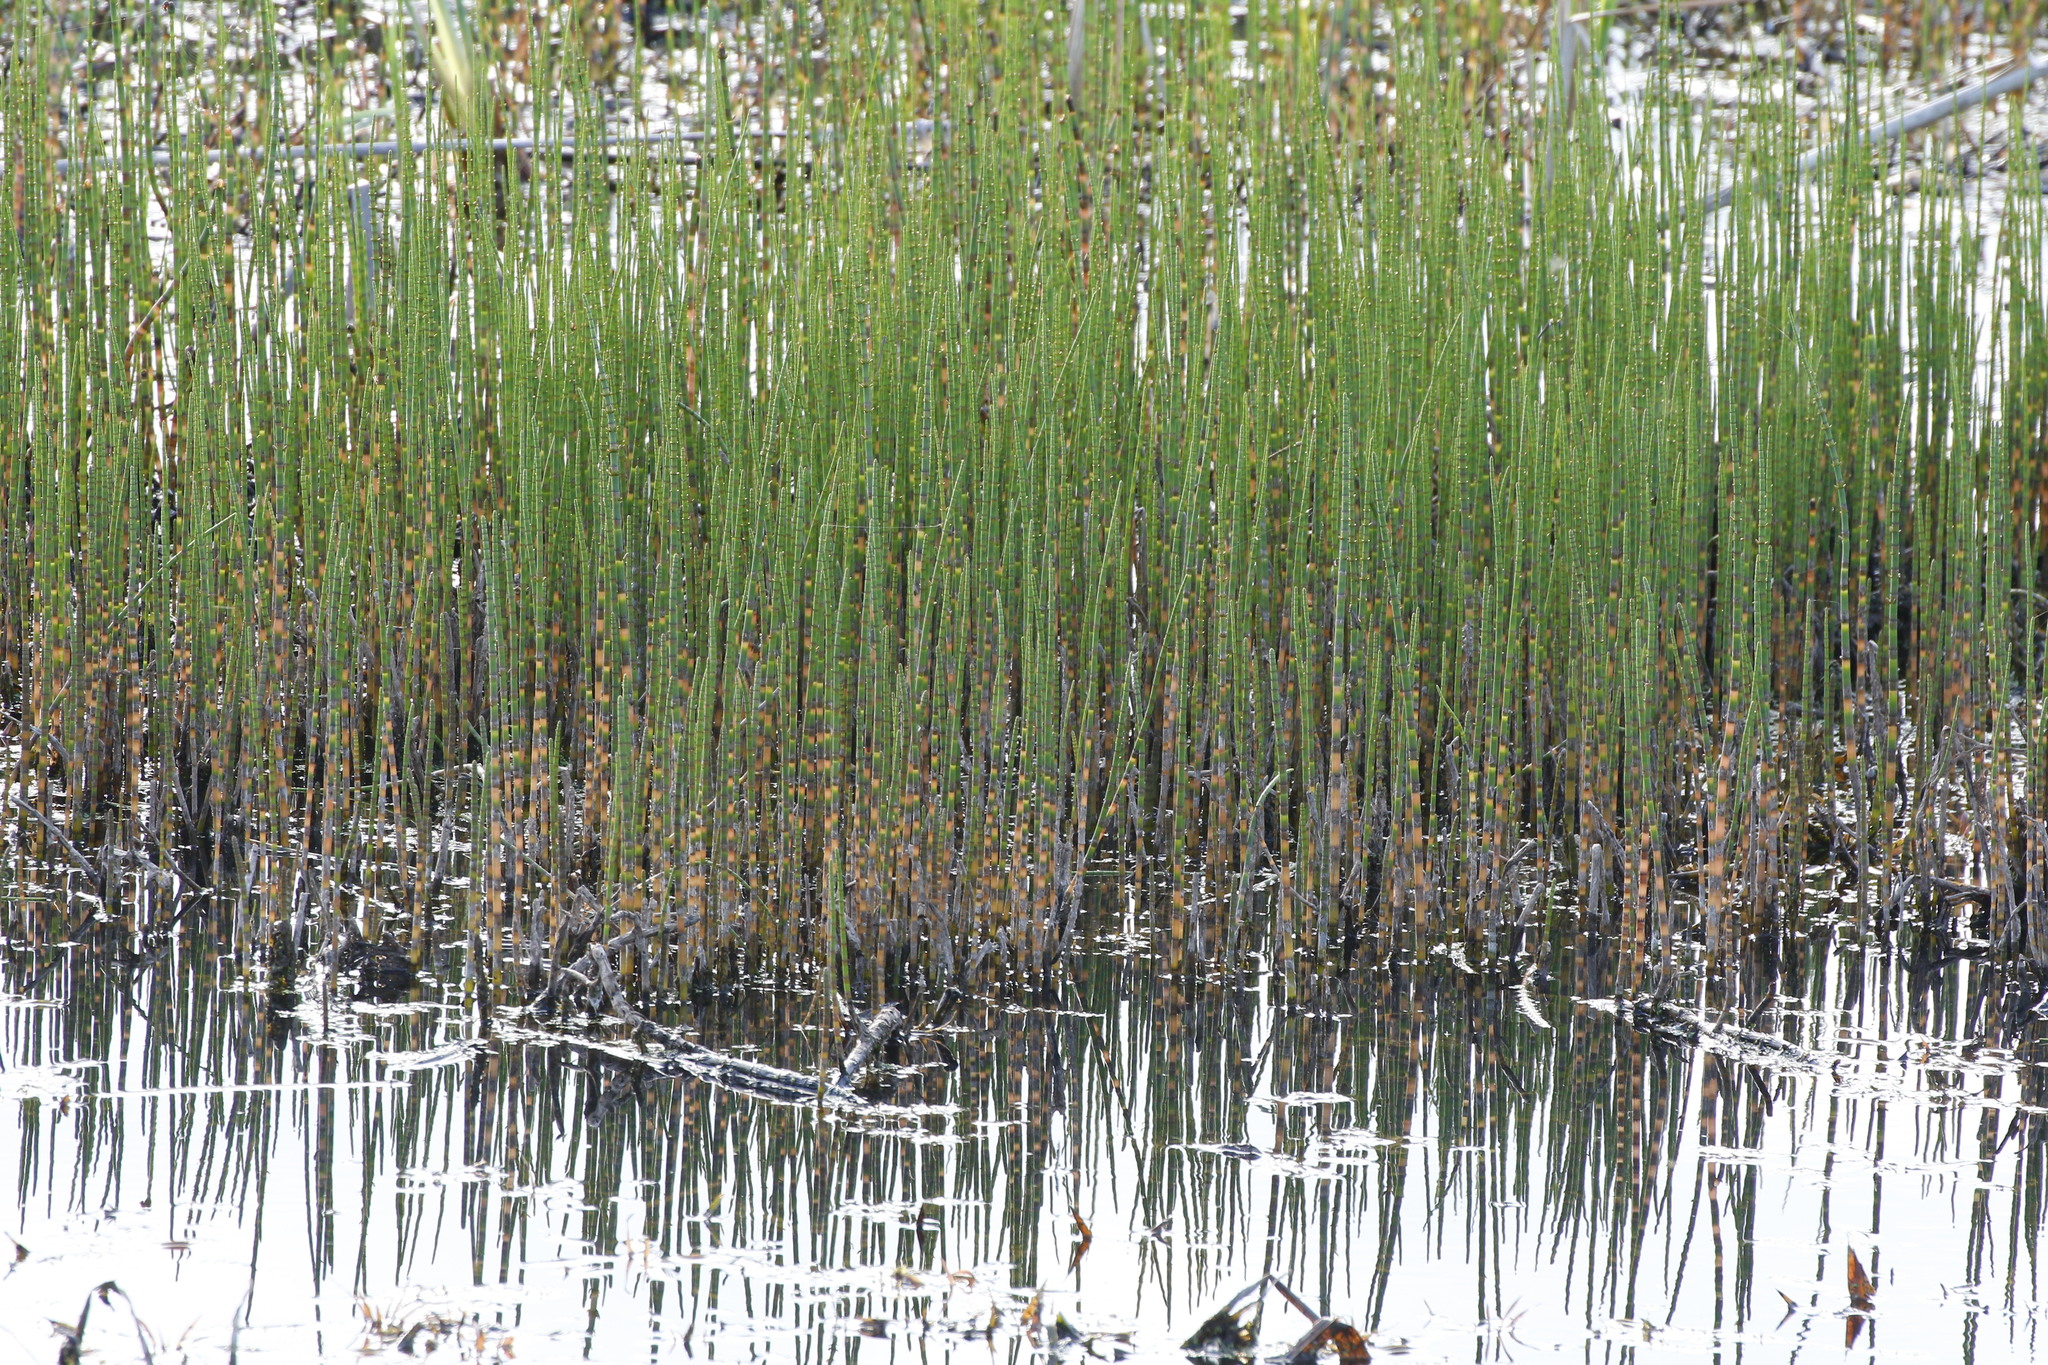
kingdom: Plantae
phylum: Tracheophyta
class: Polypodiopsida
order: Equisetales
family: Equisetaceae
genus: Equisetum
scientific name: Equisetum fluviatile
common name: Water horsetail
